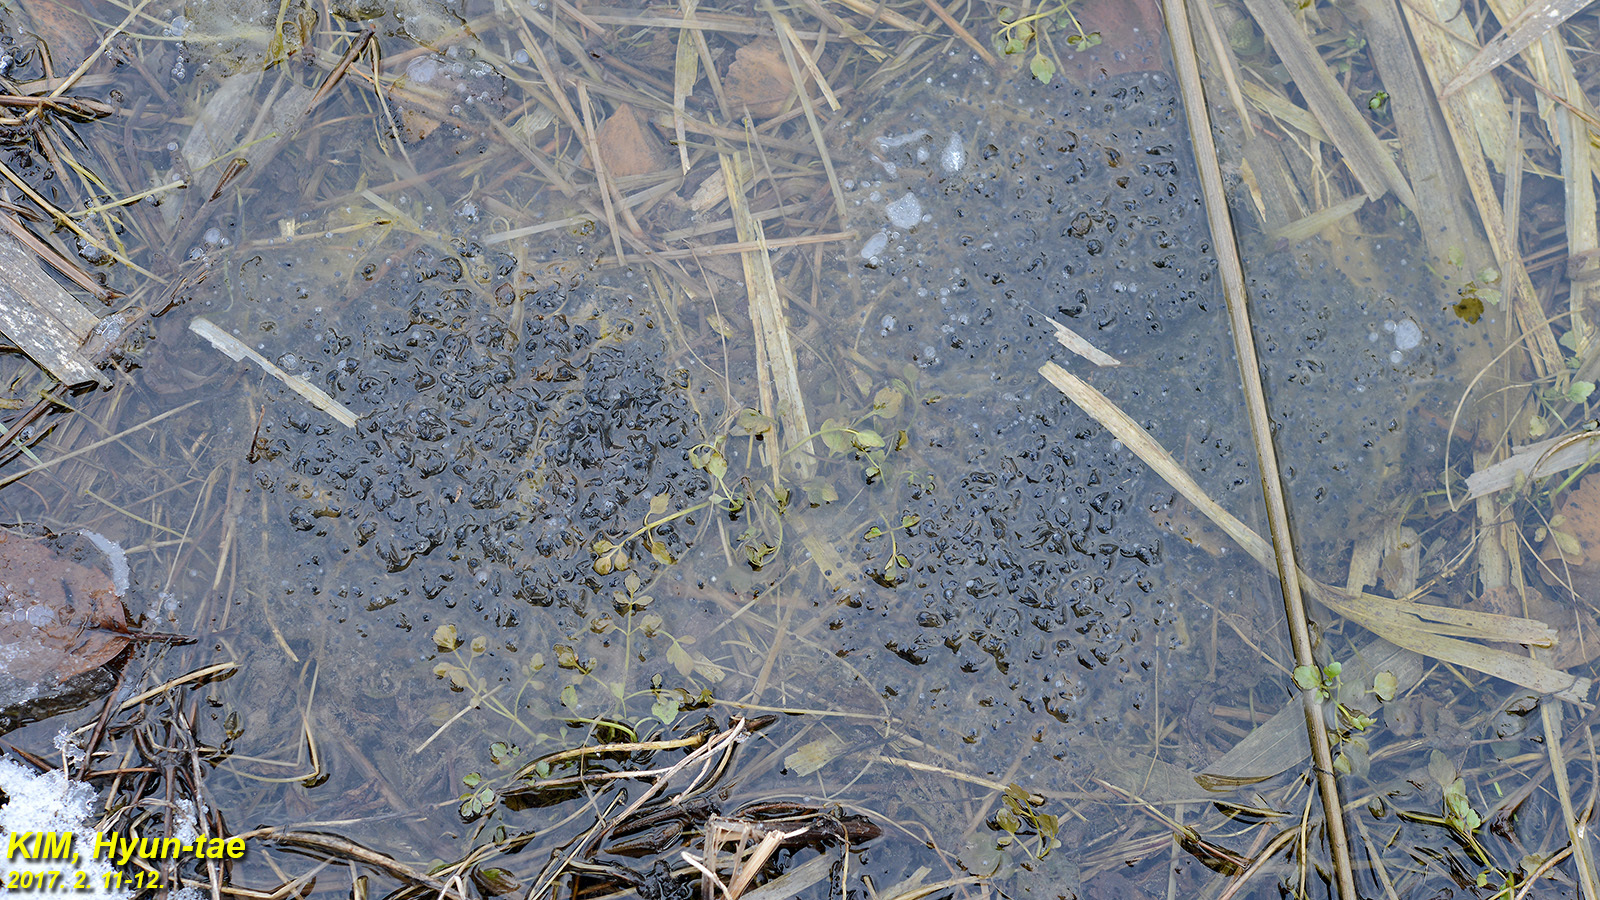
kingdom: Animalia
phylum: Chordata
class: Amphibia
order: Anura
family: Ranidae
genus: Rana
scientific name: Rana uenoi
